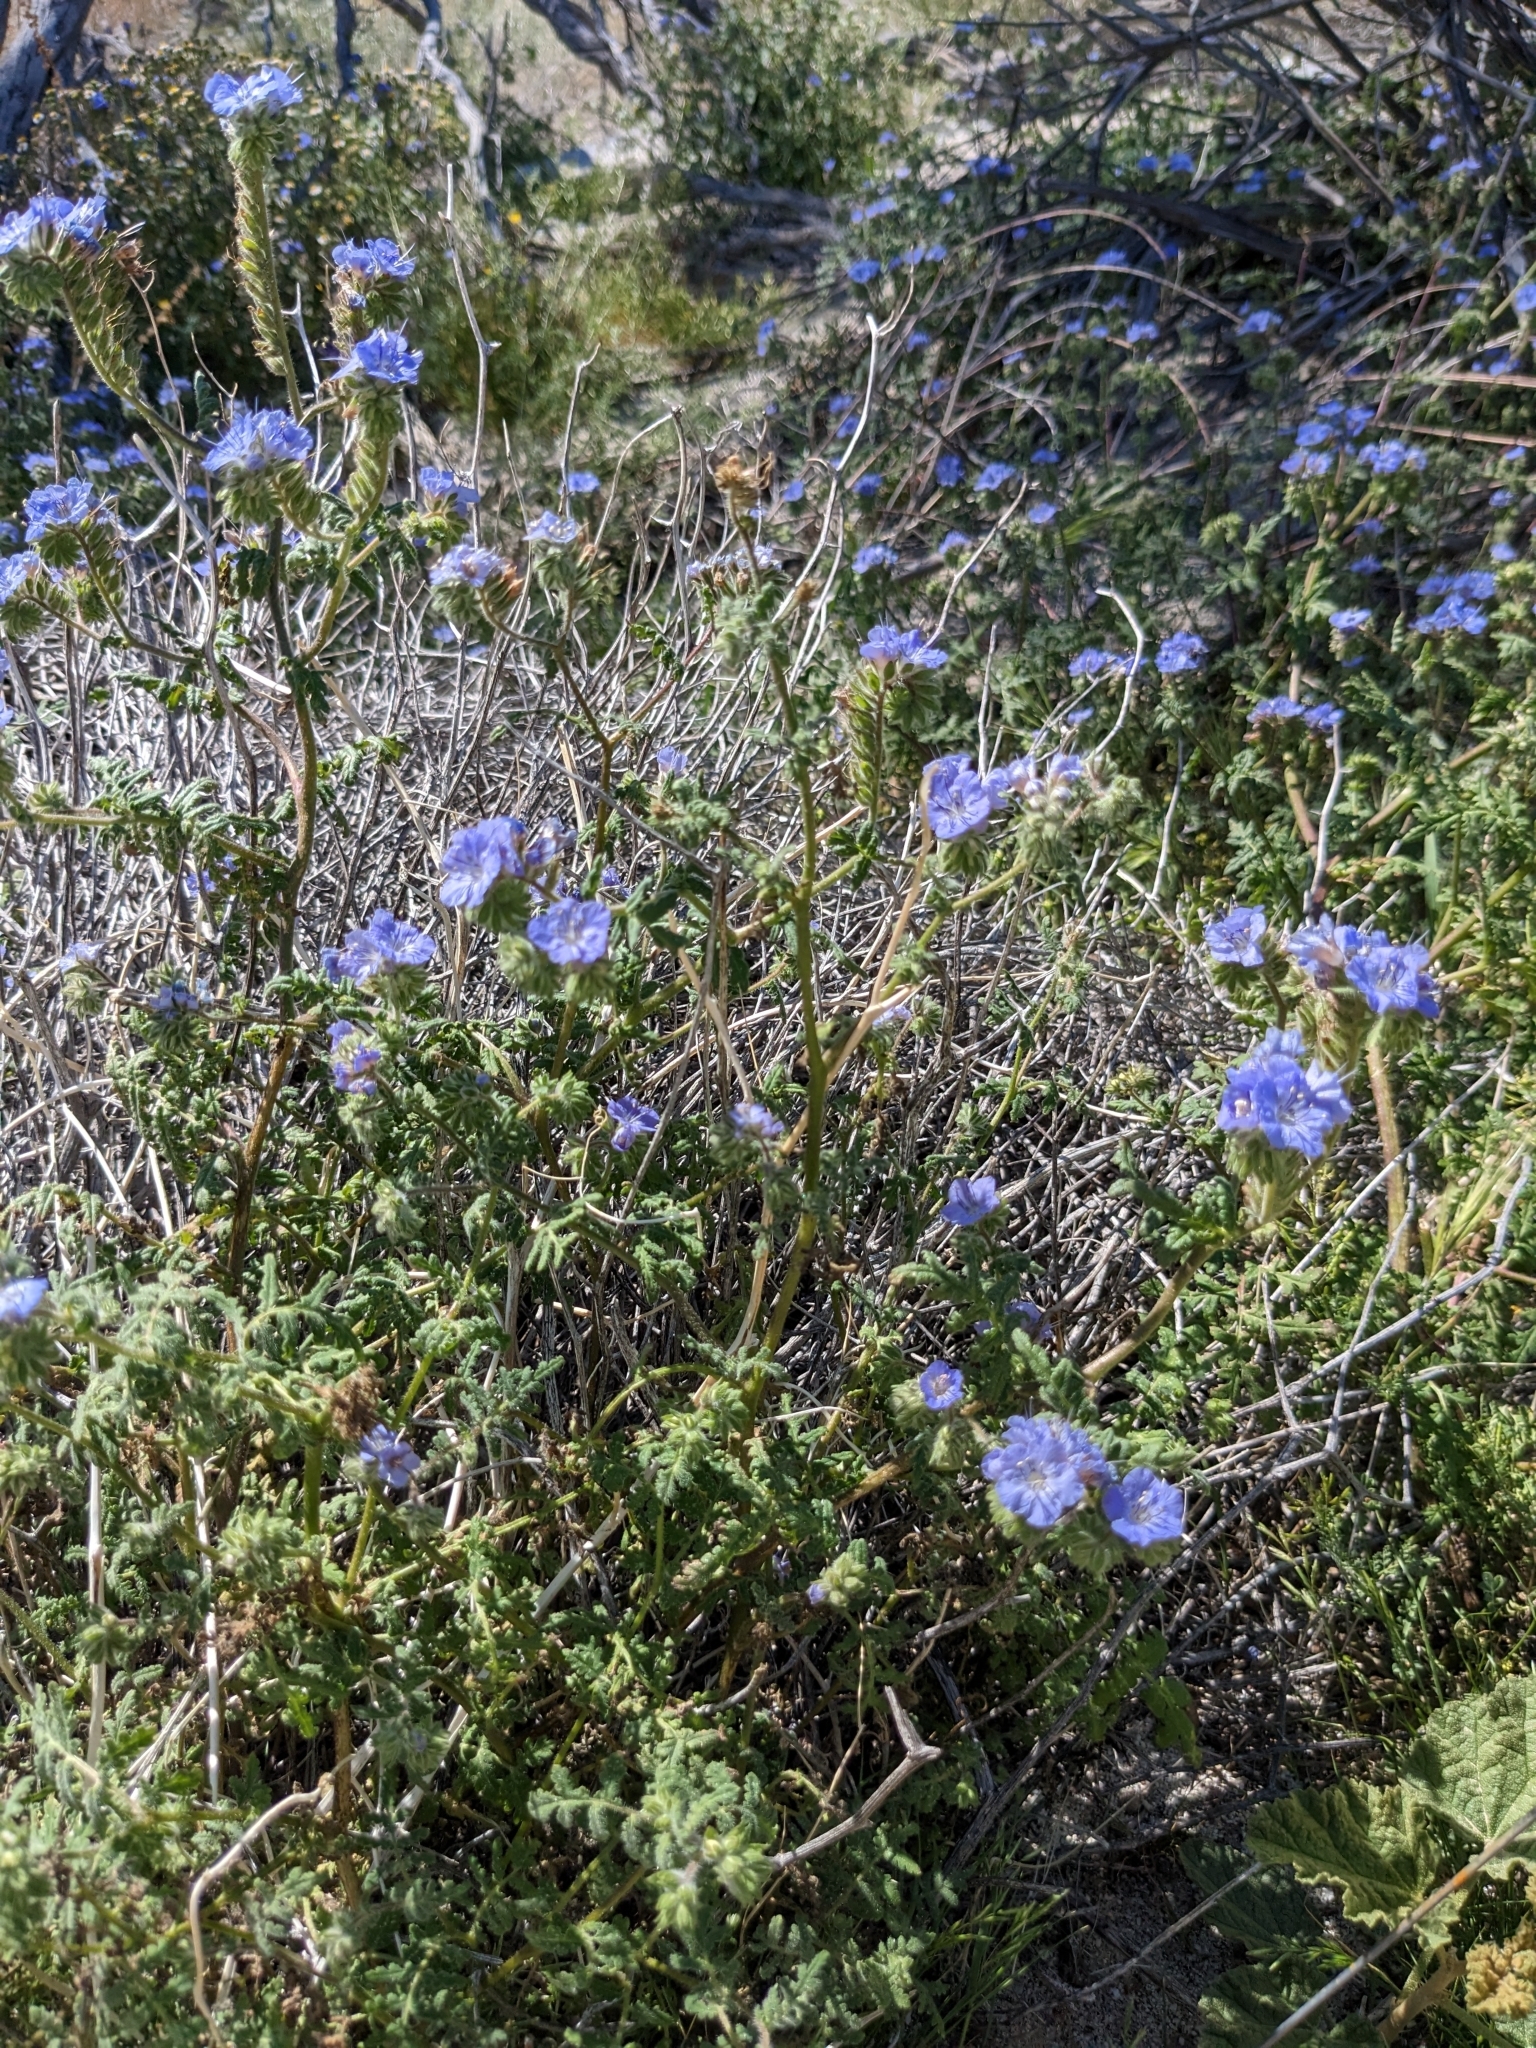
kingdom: Plantae
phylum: Tracheophyta
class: Magnoliopsida
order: Boraginales
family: Hydrophyllaceae
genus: Phacelia
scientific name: Phacelia distans
